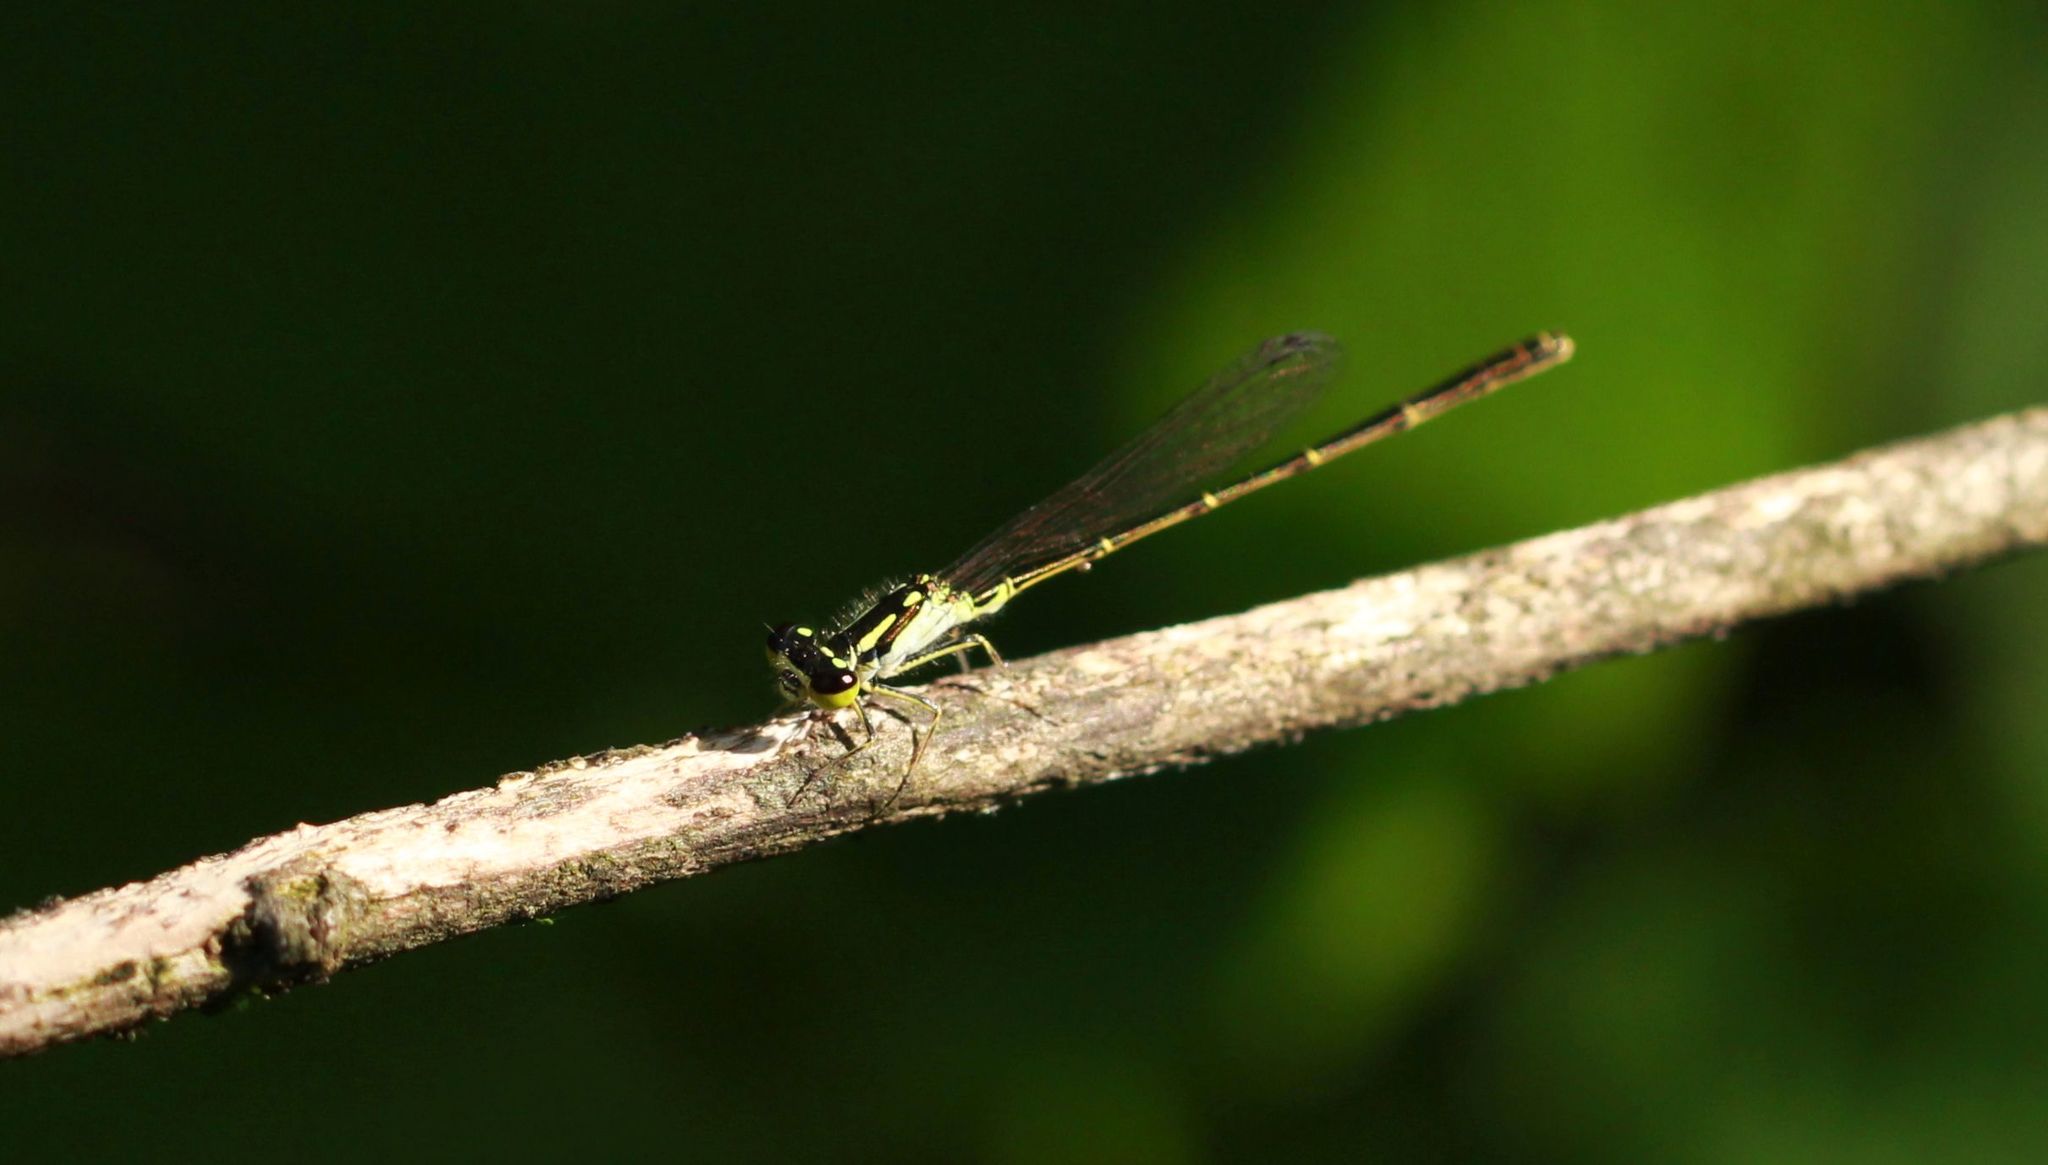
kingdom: Animalia
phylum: Arthropoda
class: Insecta
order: Odonata
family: Coenagrionidae
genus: Ischnura
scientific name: Ischnura posita
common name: Fragile forktail
